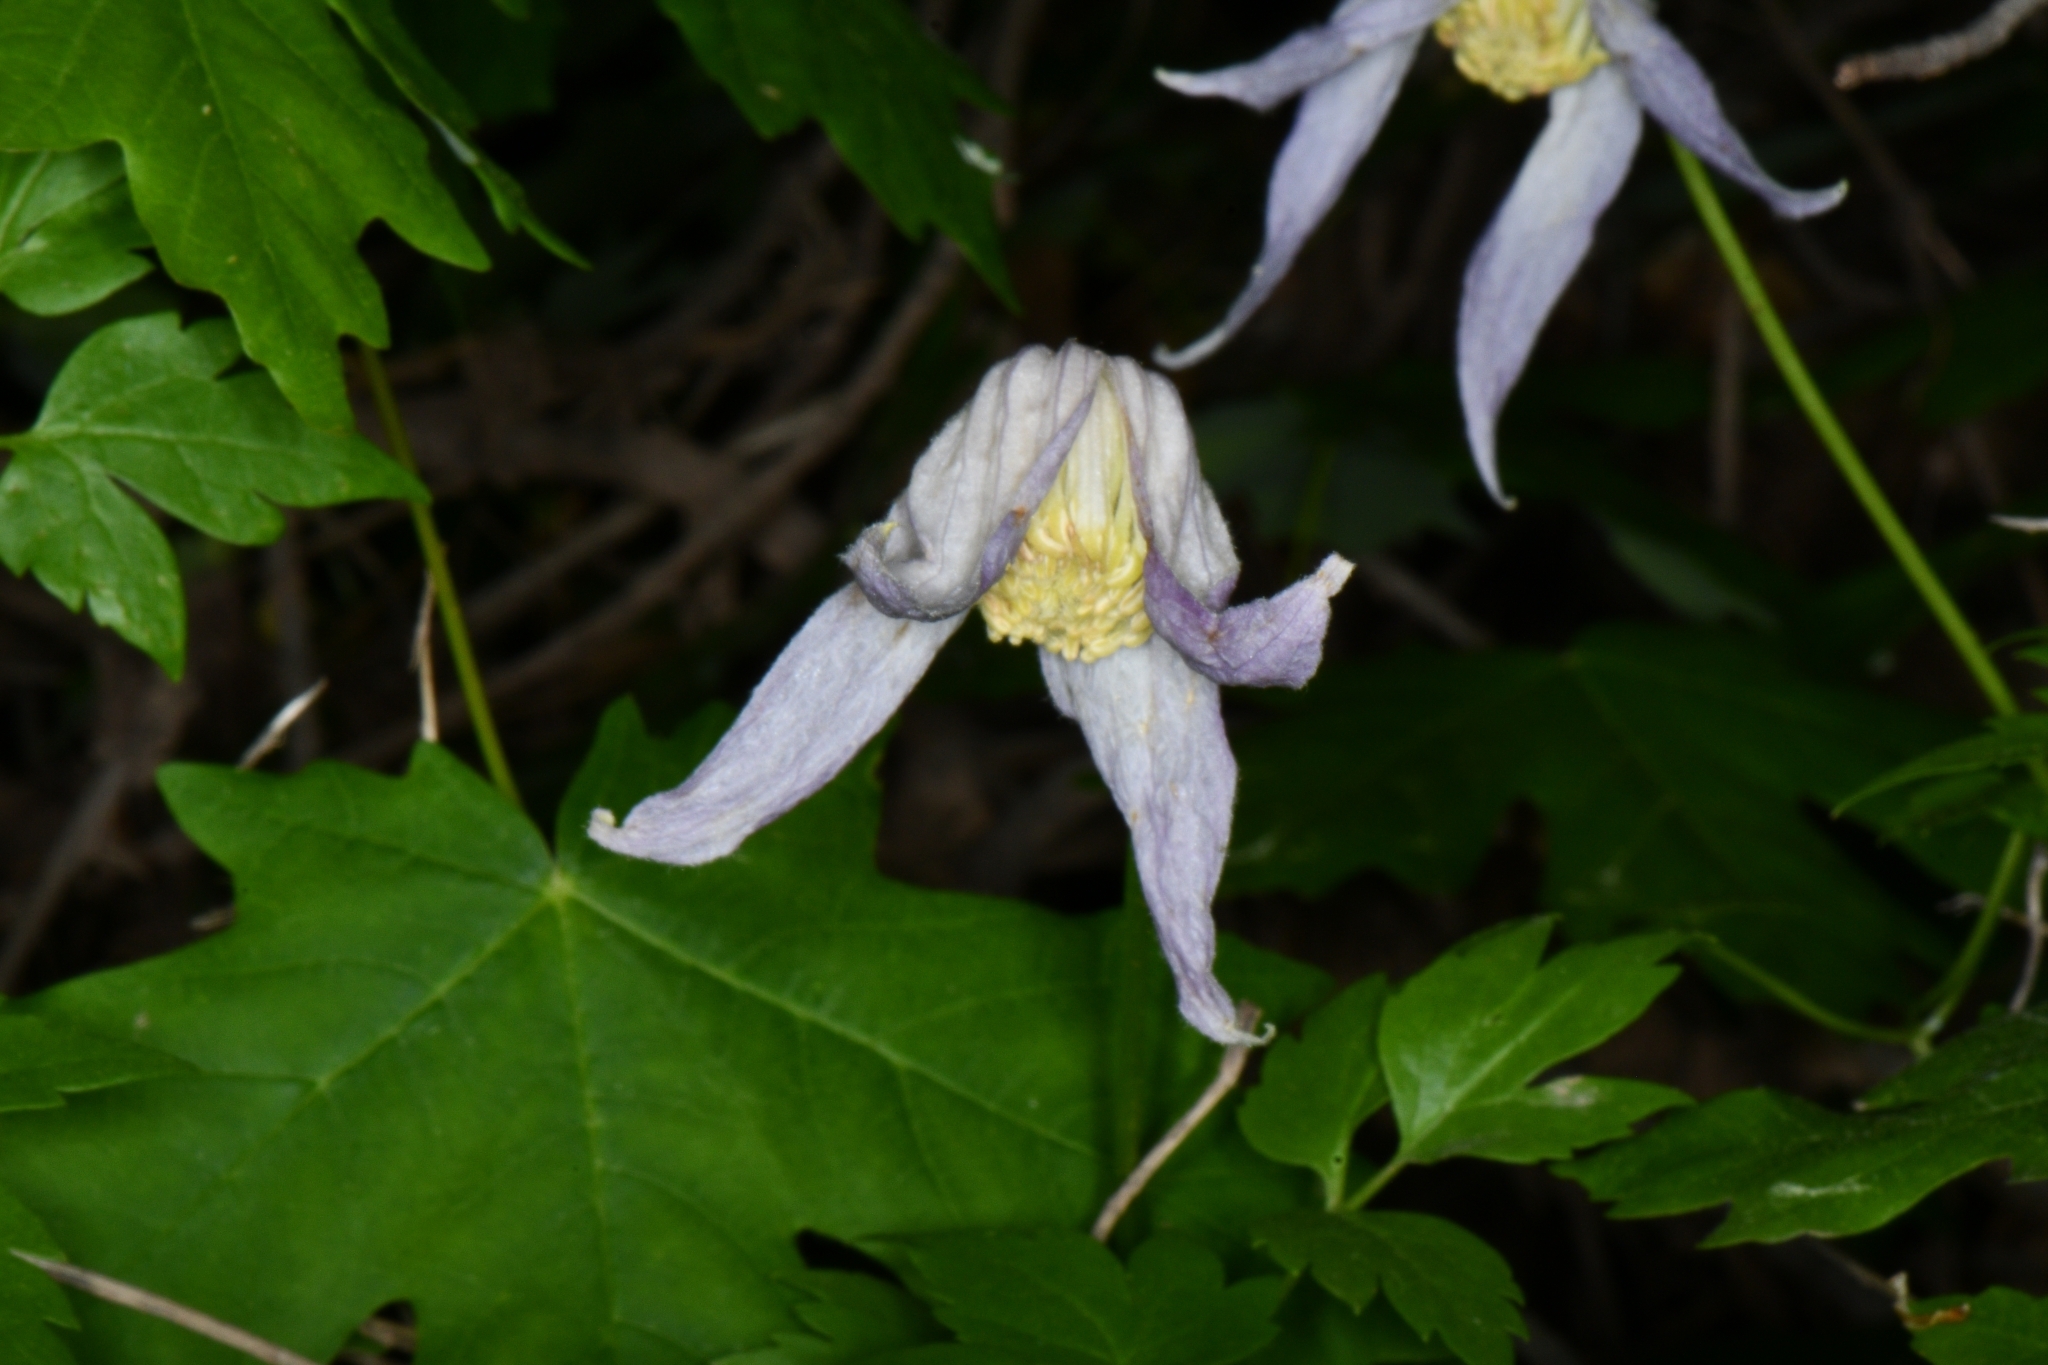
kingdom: Plantae
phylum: Tracheophyta
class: Magnoliopsida
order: Ranunculales
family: Ranunculaceae
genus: Clematis
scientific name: Clematis columbiana
